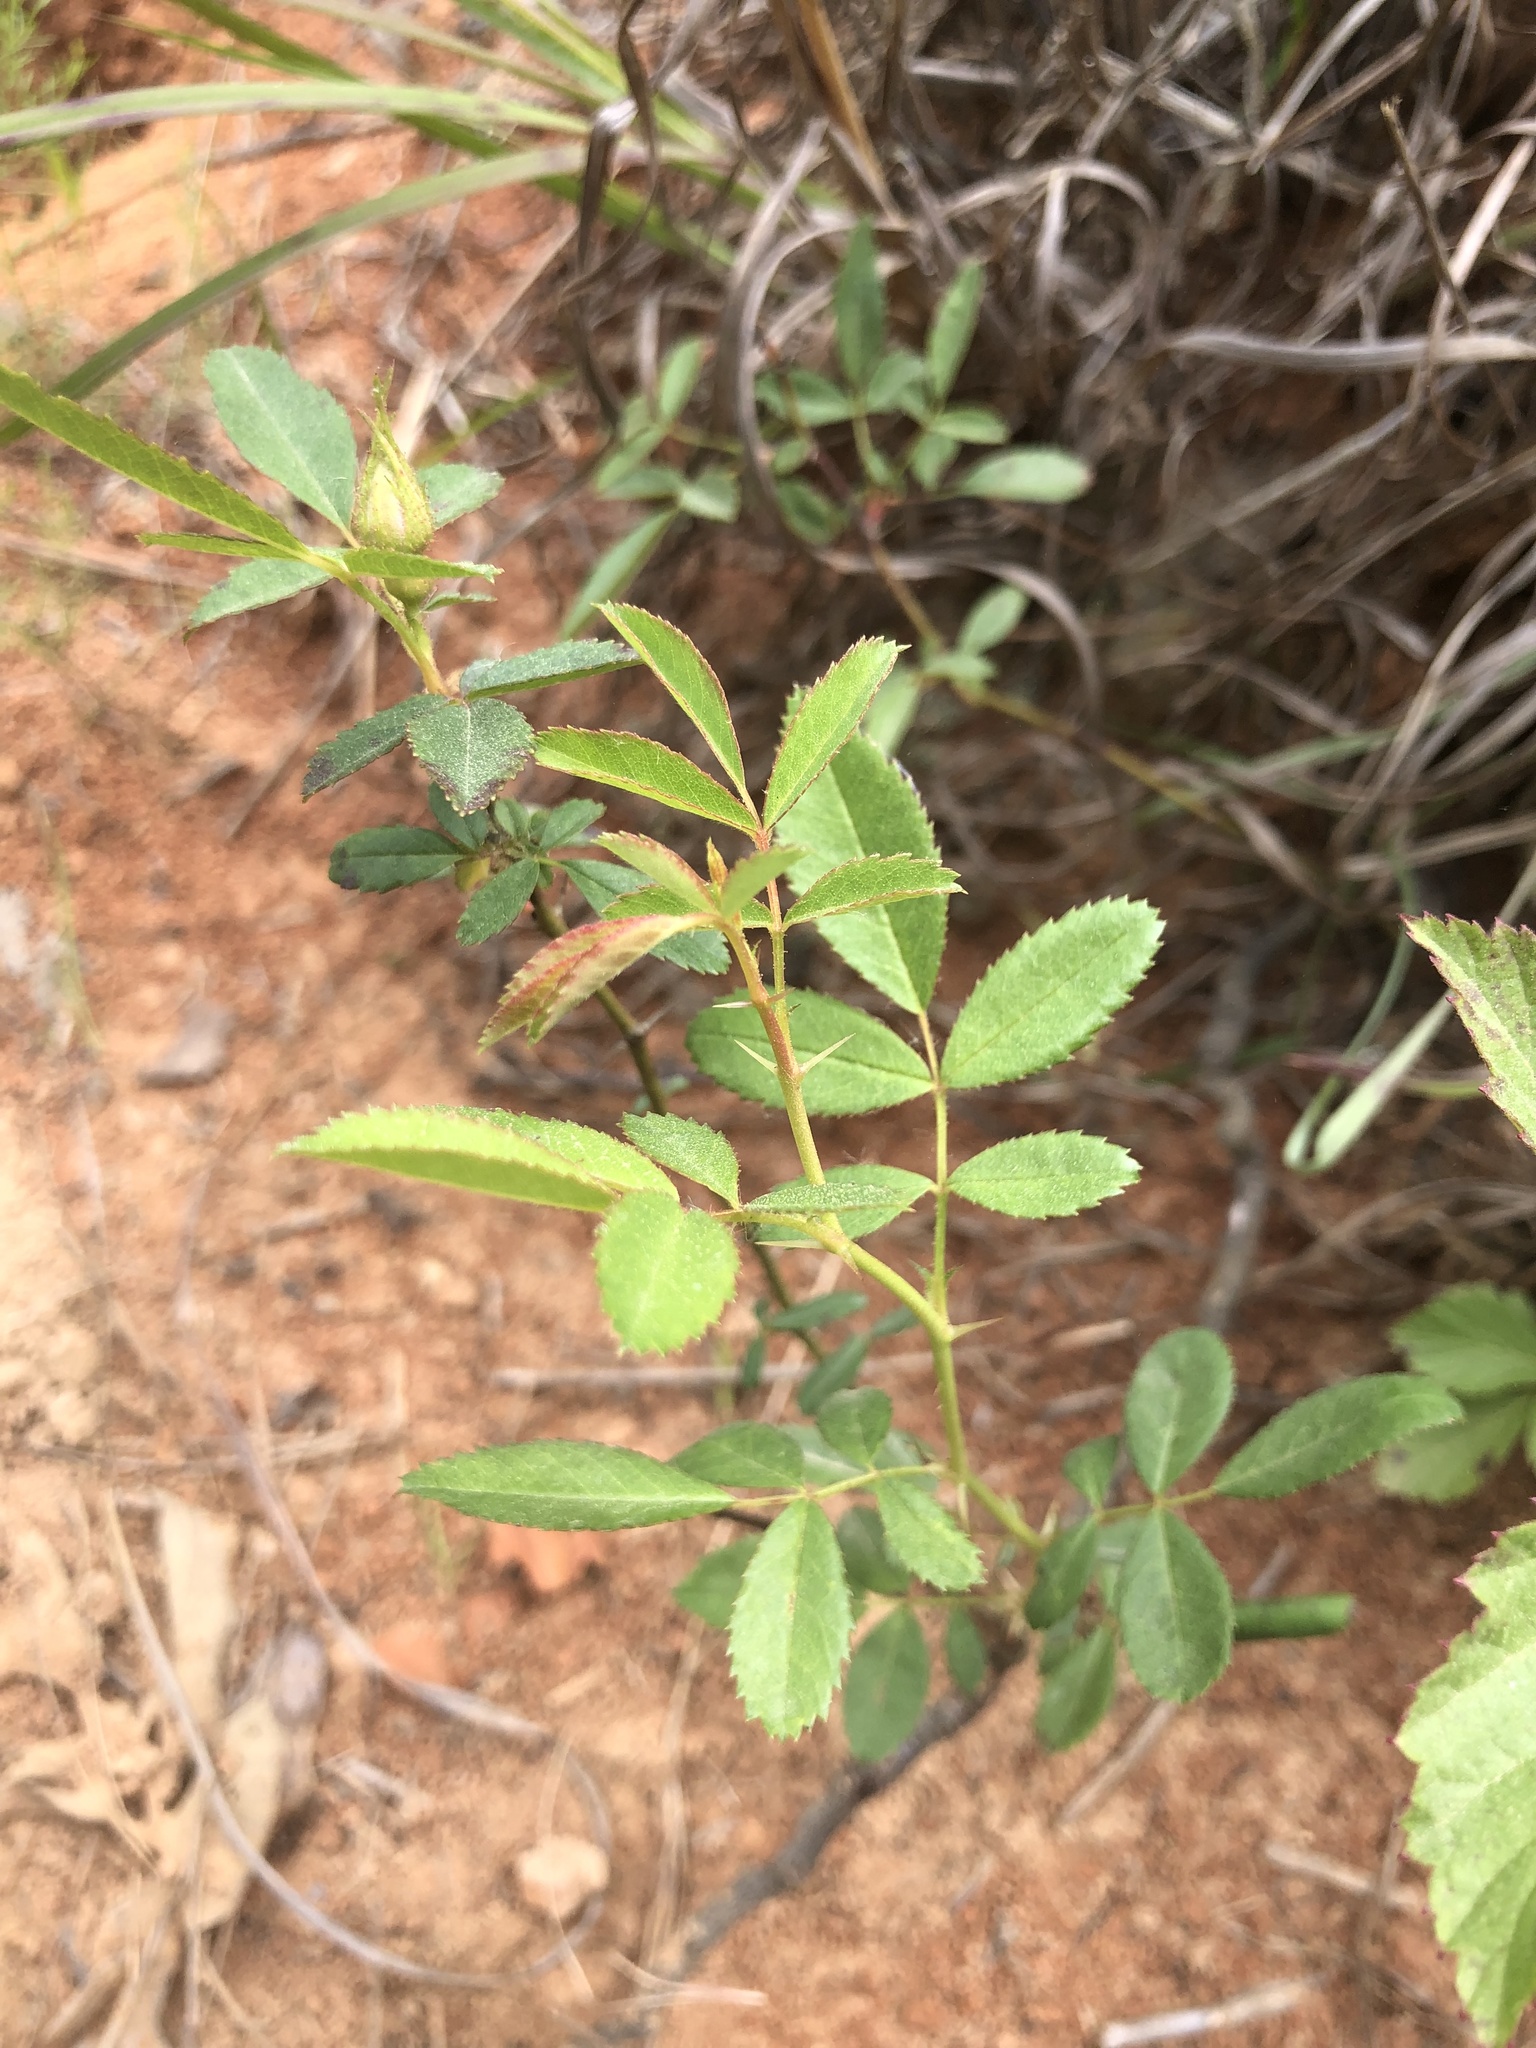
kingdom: Plantae
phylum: Tracheophyta
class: Magnoliopsida
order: Rosales
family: Rosaceae
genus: Rosa
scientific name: Rosa carolina
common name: Pasture rose
